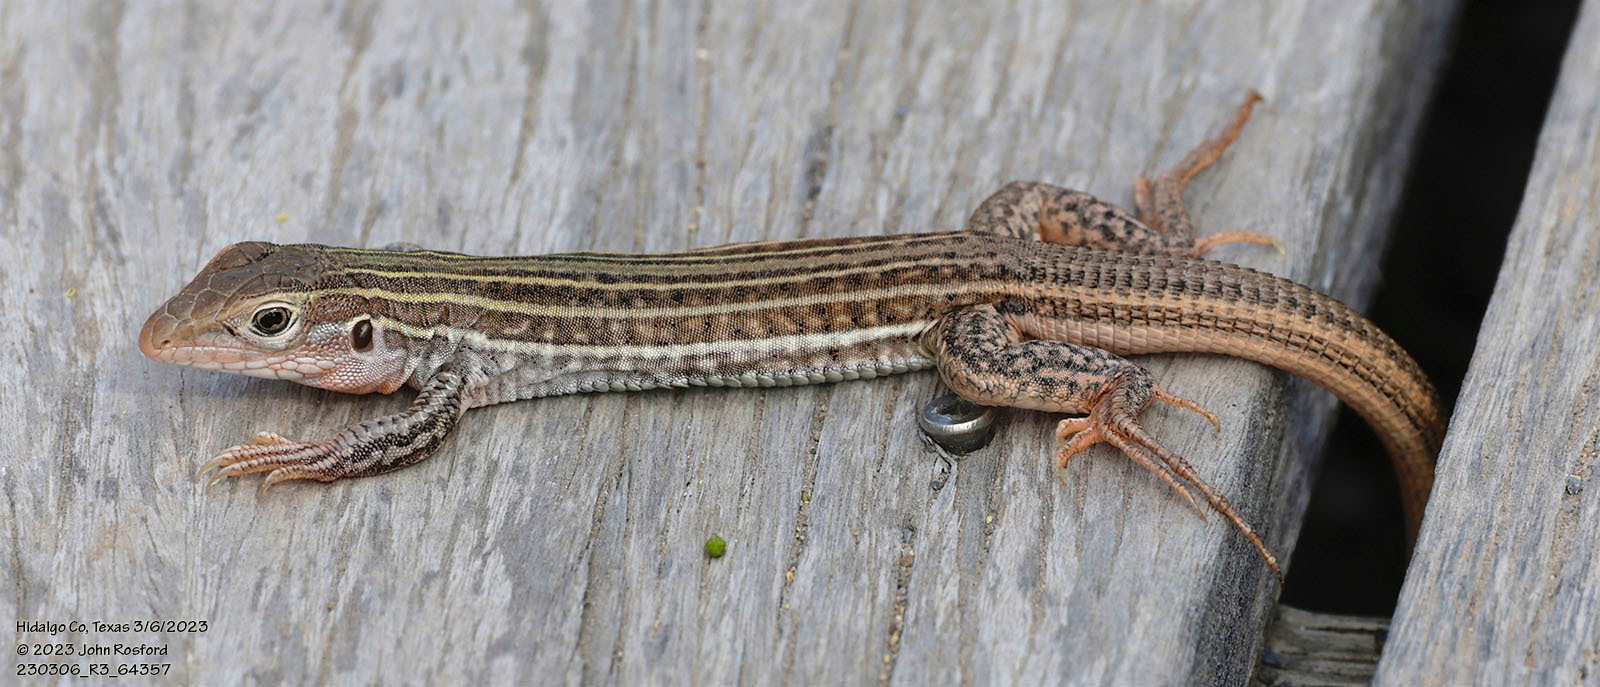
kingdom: Animalia
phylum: Chordata
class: Squamata
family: Teiidae
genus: Aspidoscelis
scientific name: Aspidoscelis gularis
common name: Eastern spotted whiptail
